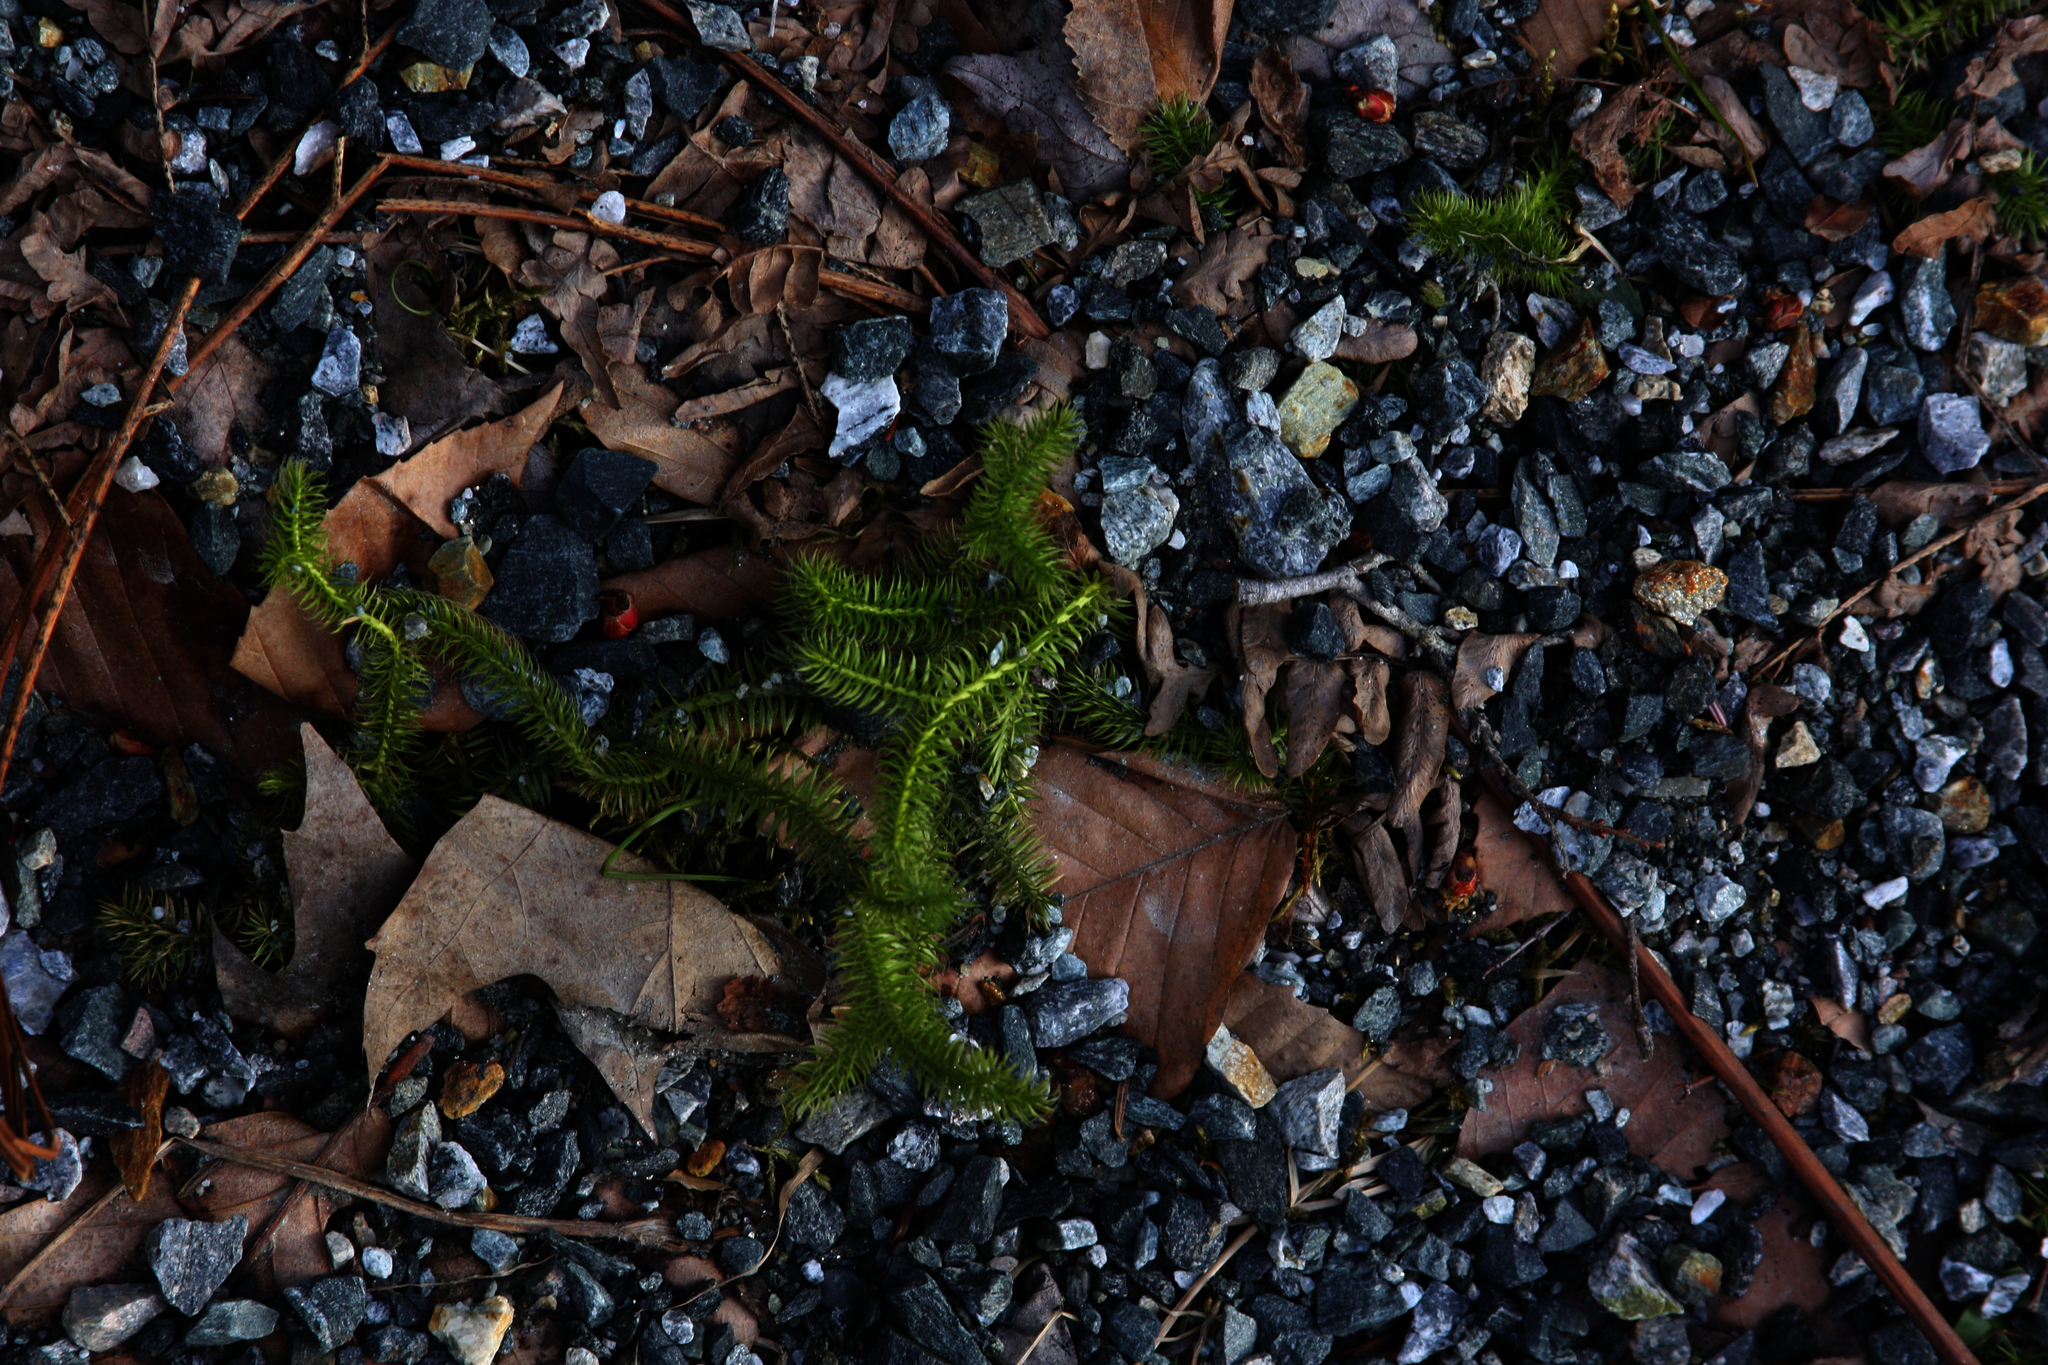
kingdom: Plantae
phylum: Tracheophyta
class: Lycopodiopsida
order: Lycopodiales
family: Lycopodiaceae
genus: Lycopodium
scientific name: Lycopodium clavatum
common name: Stag's-horn clubmoss
